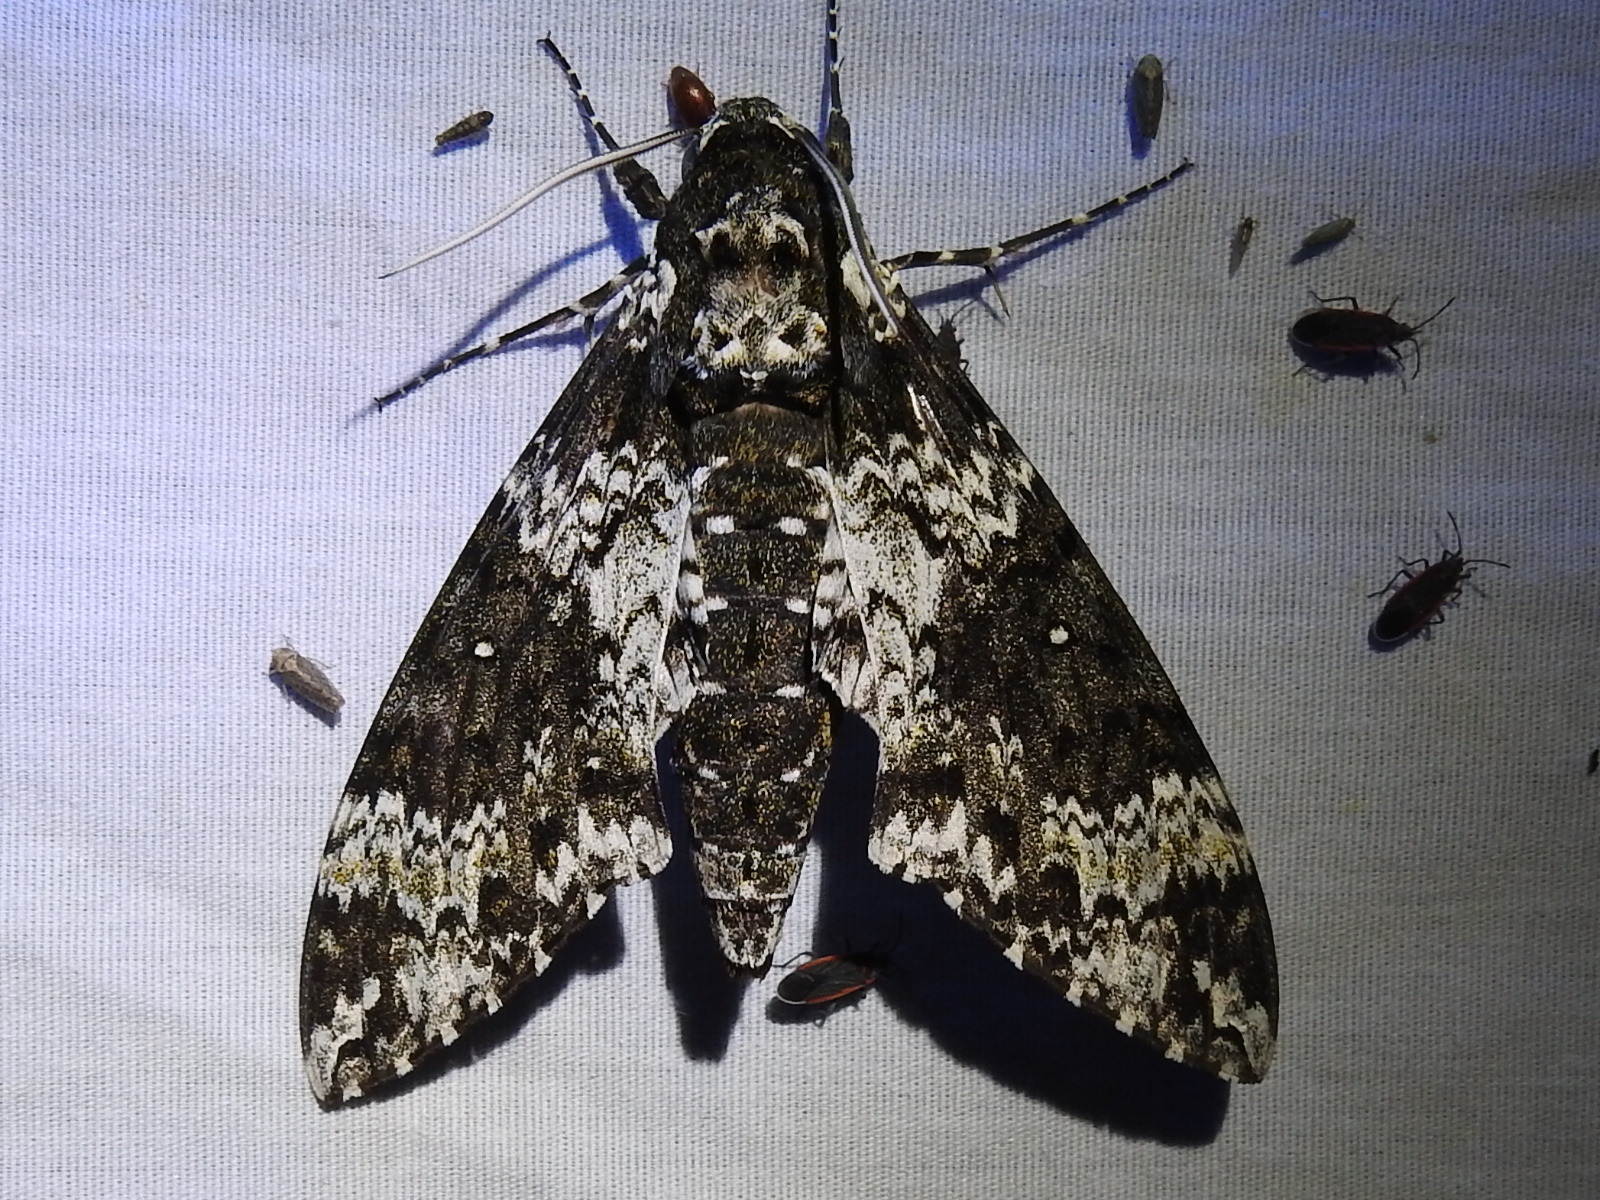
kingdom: Animalia
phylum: Arthropoda
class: Insecta
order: Lepidoptera
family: Sphingidae
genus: Manduca
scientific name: Manduca rustica
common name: Rustic sphinx
